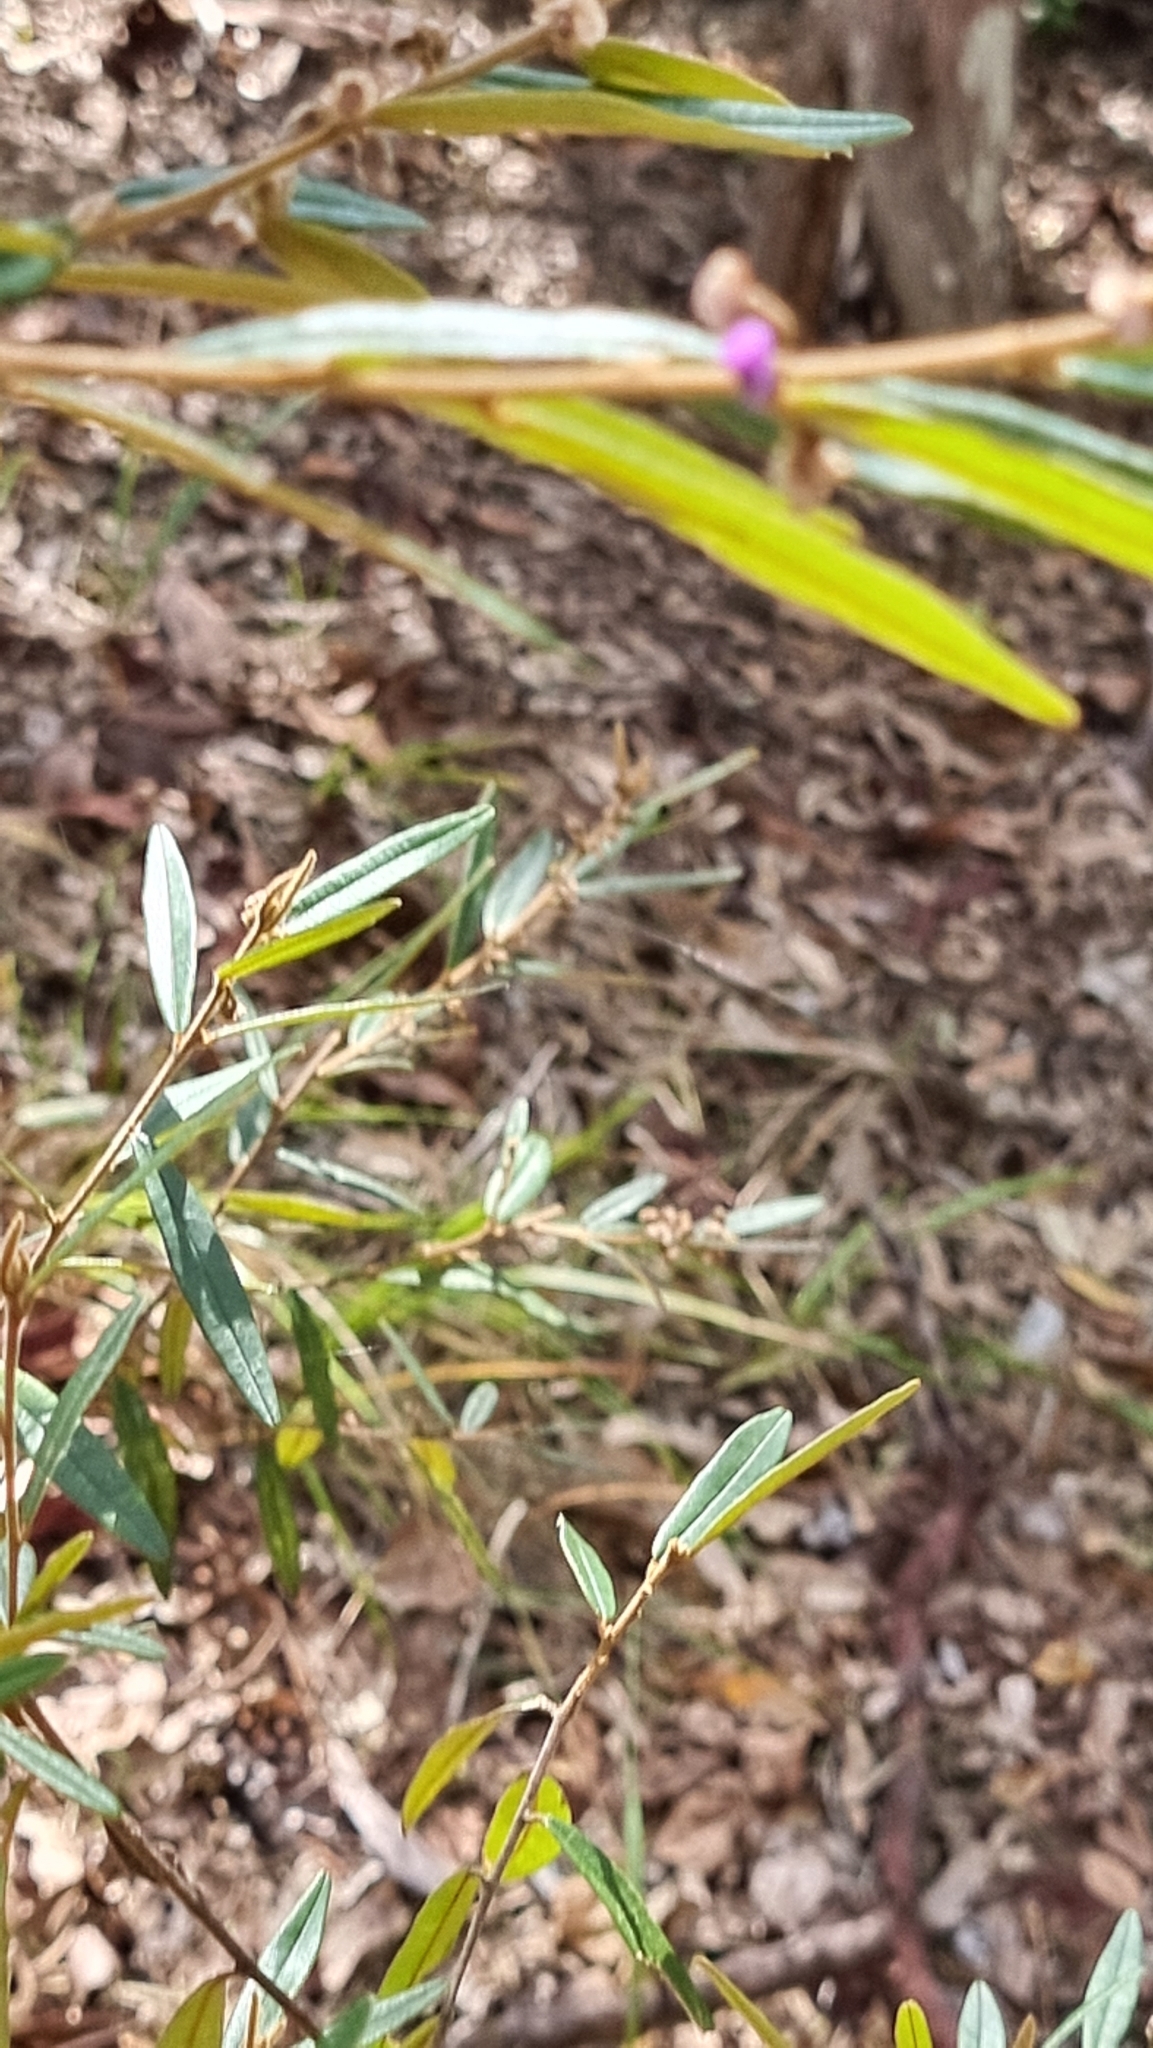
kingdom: Plantae
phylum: Tracheophyta
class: Magnoliopsida
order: Fabales
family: Fabaceae
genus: Hovea
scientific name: Hovea acutifolia
